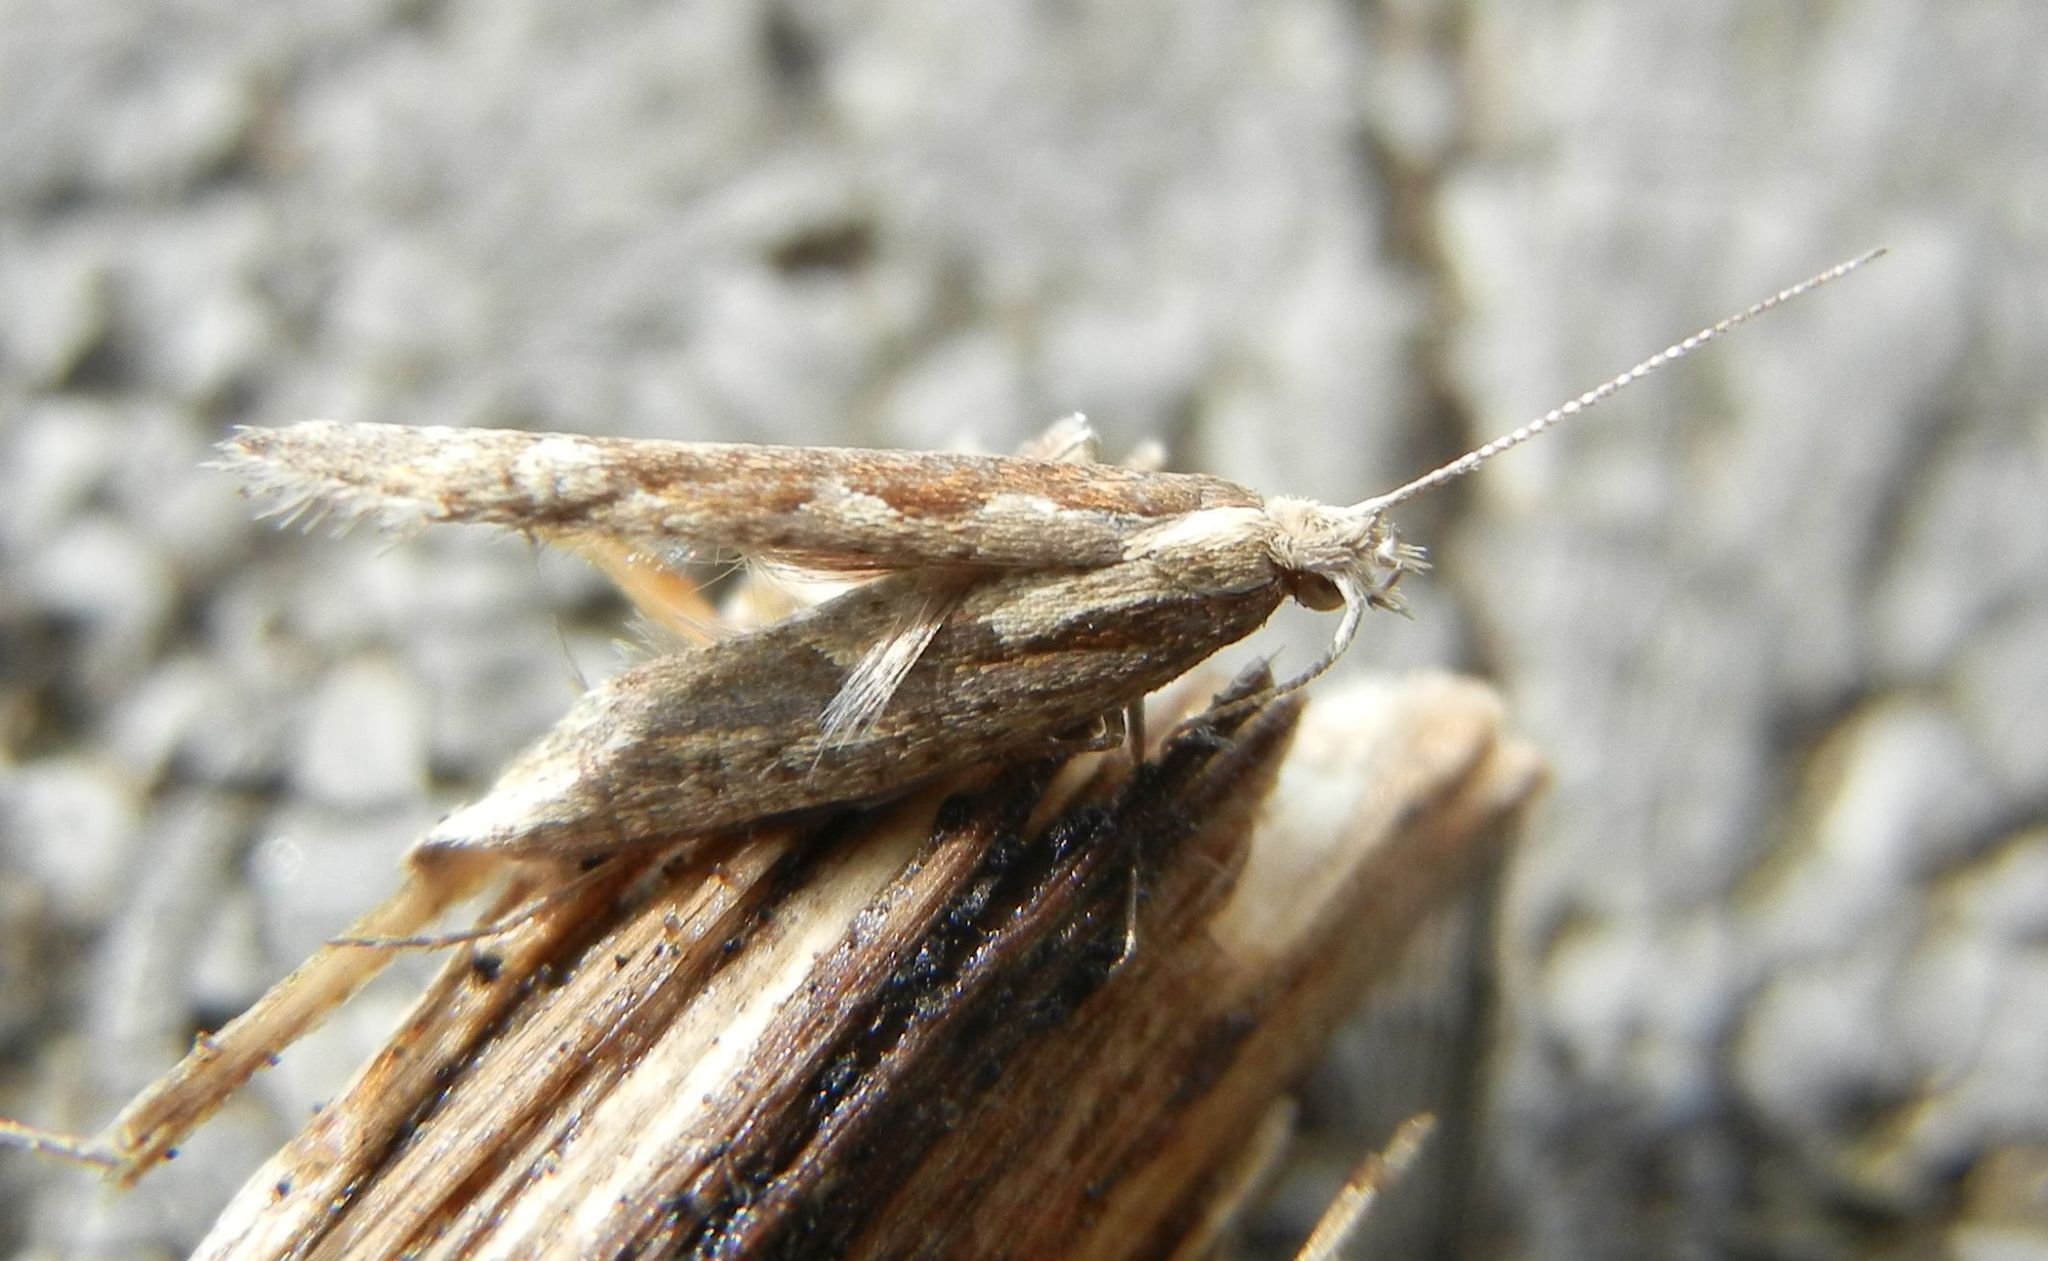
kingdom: Animalia
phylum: Arthropoda
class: Insecta
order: Lepidoptera
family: Plutellidae
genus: Plutella
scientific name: Plutella xylostella
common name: Diamond-back moth
